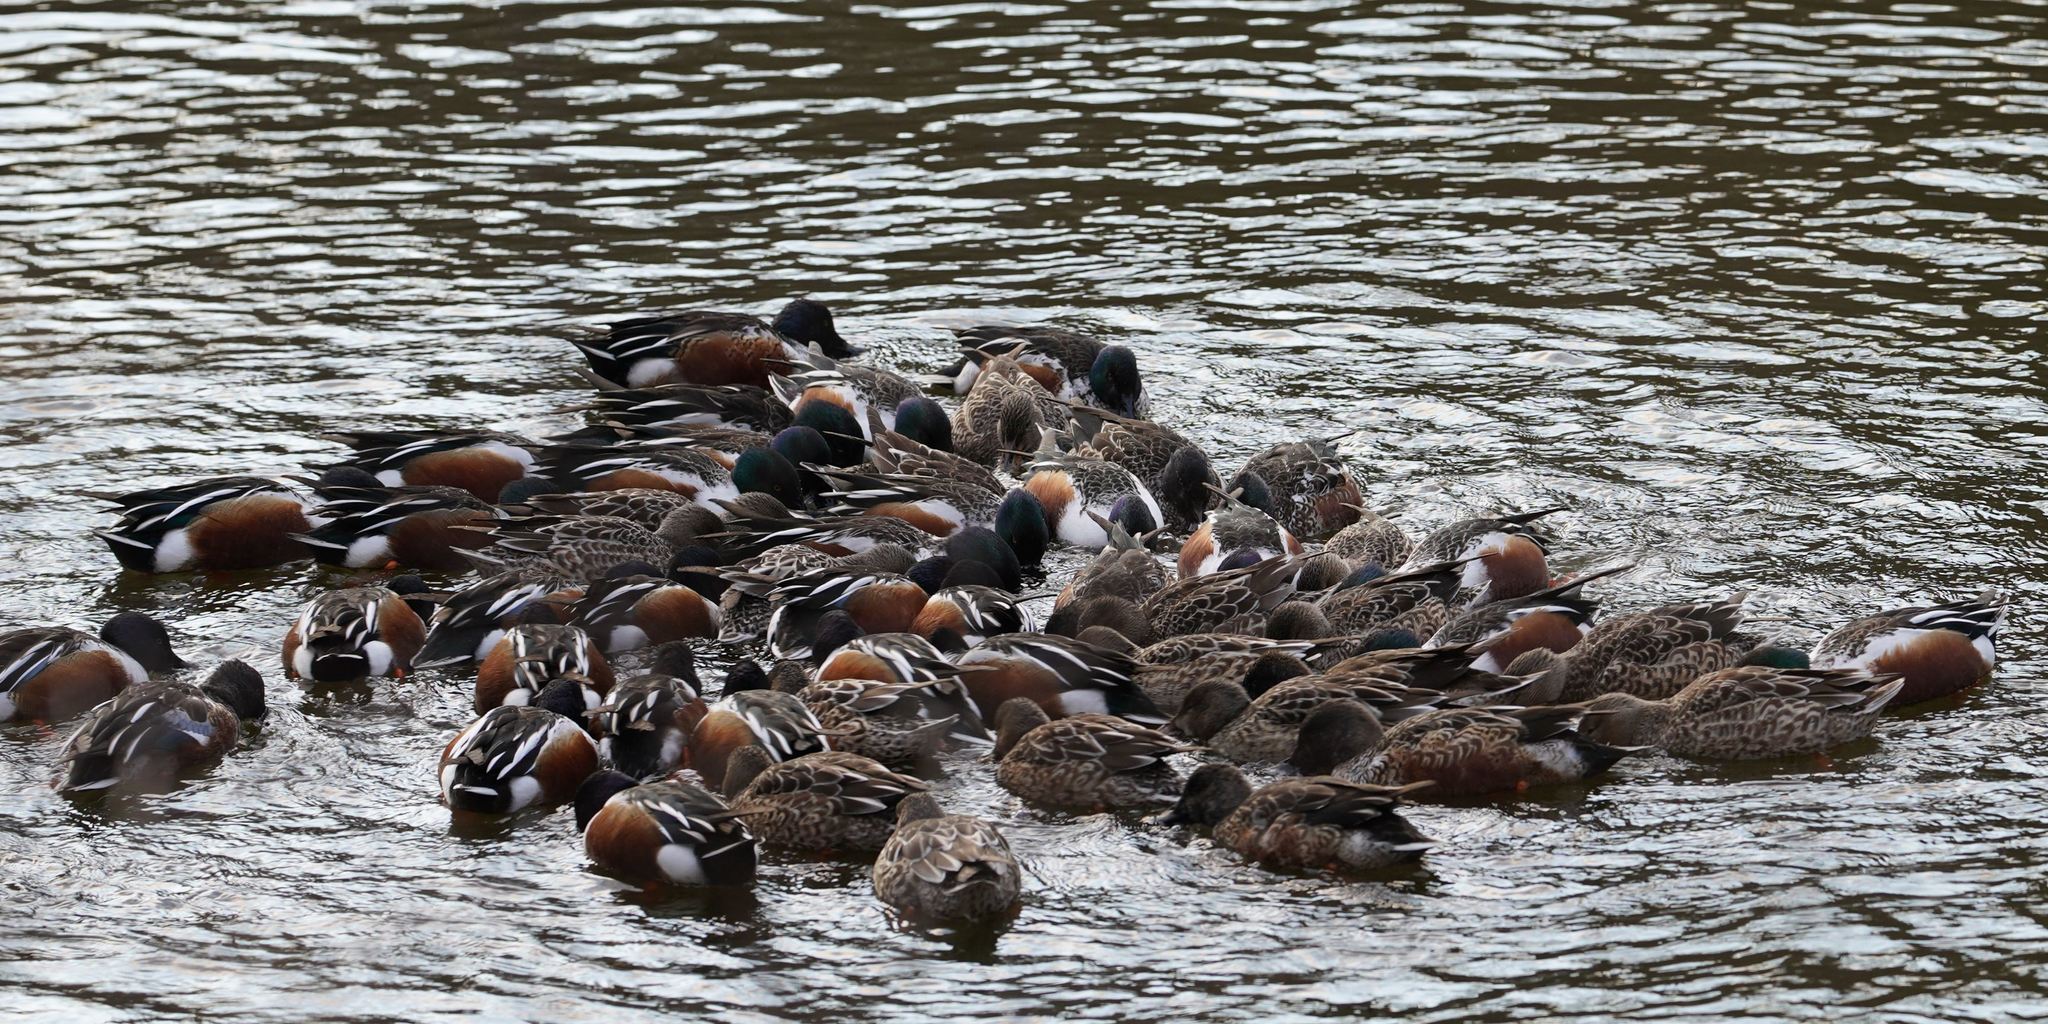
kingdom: Animalia
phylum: Chordata
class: Aves
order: Anseriformes
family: Anatidae
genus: Spatula
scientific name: Spatula clypeata
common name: Northern shoveler
